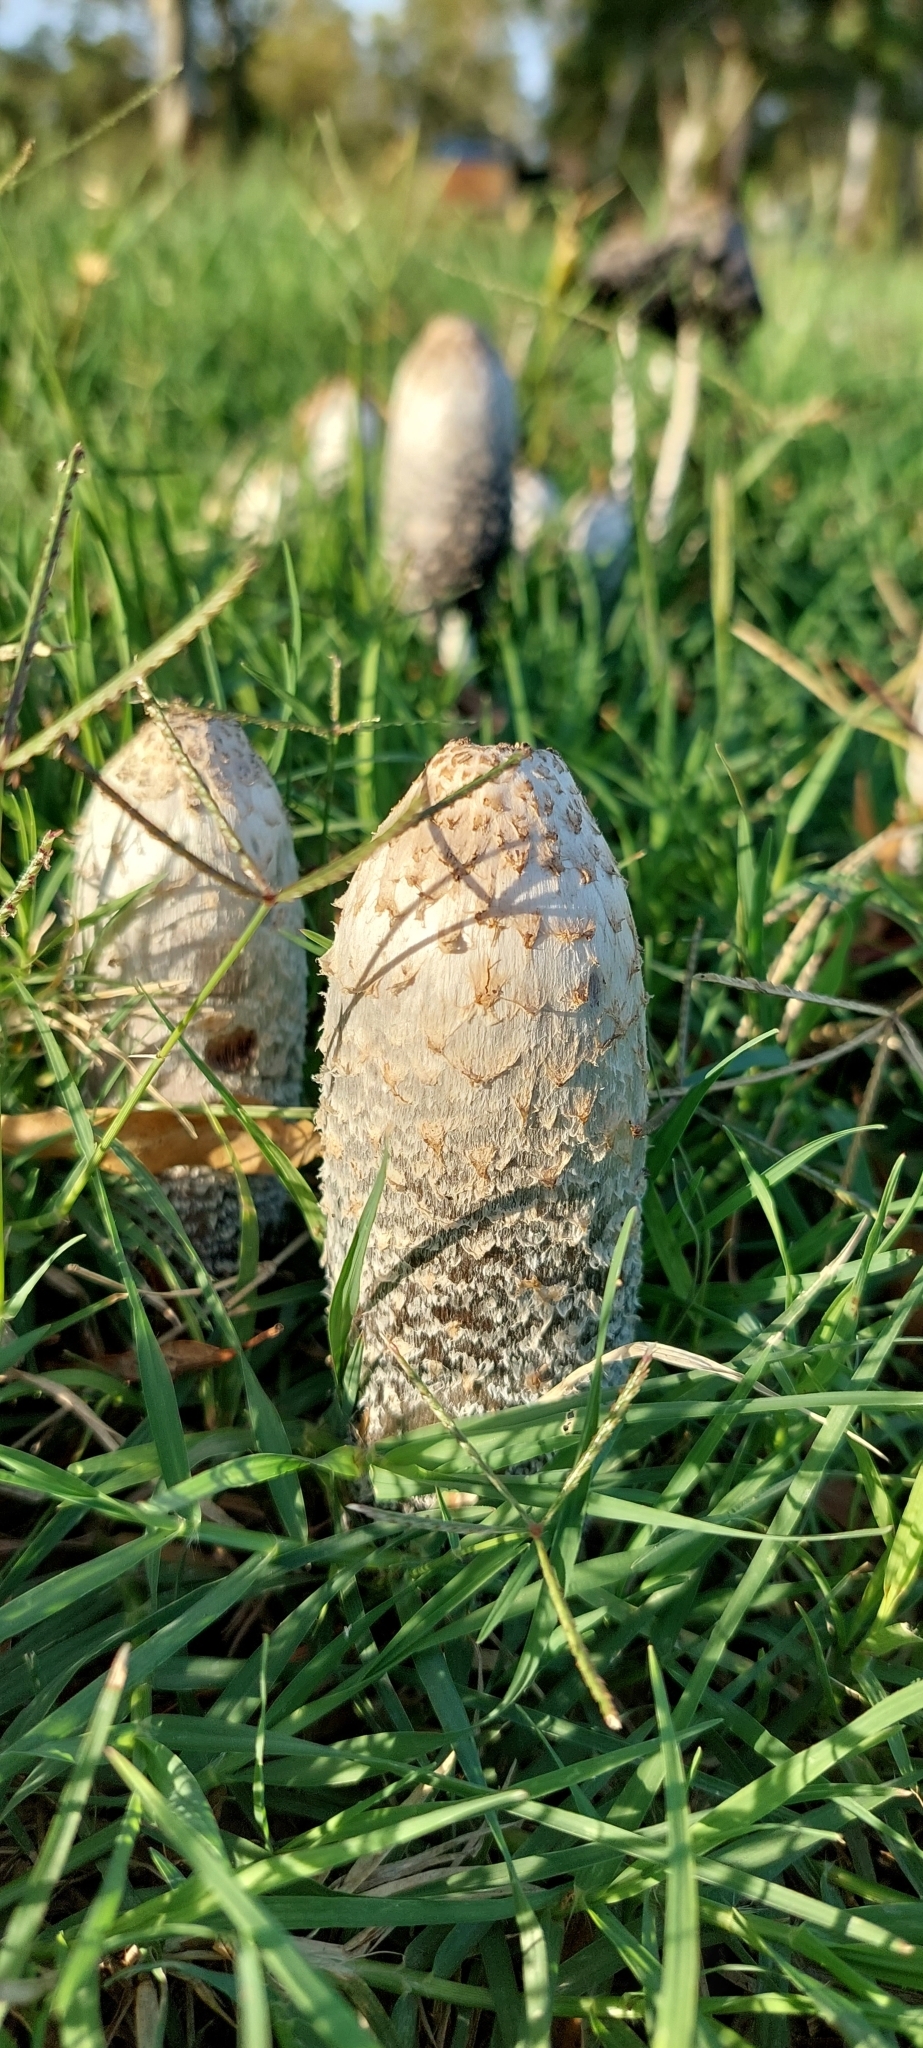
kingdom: Fungi
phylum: Basidiomycota
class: Agaricomycetes
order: Agaricales
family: Agaricaceae
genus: Coprinus
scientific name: Coprinus comatus
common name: Lawyer's wig
